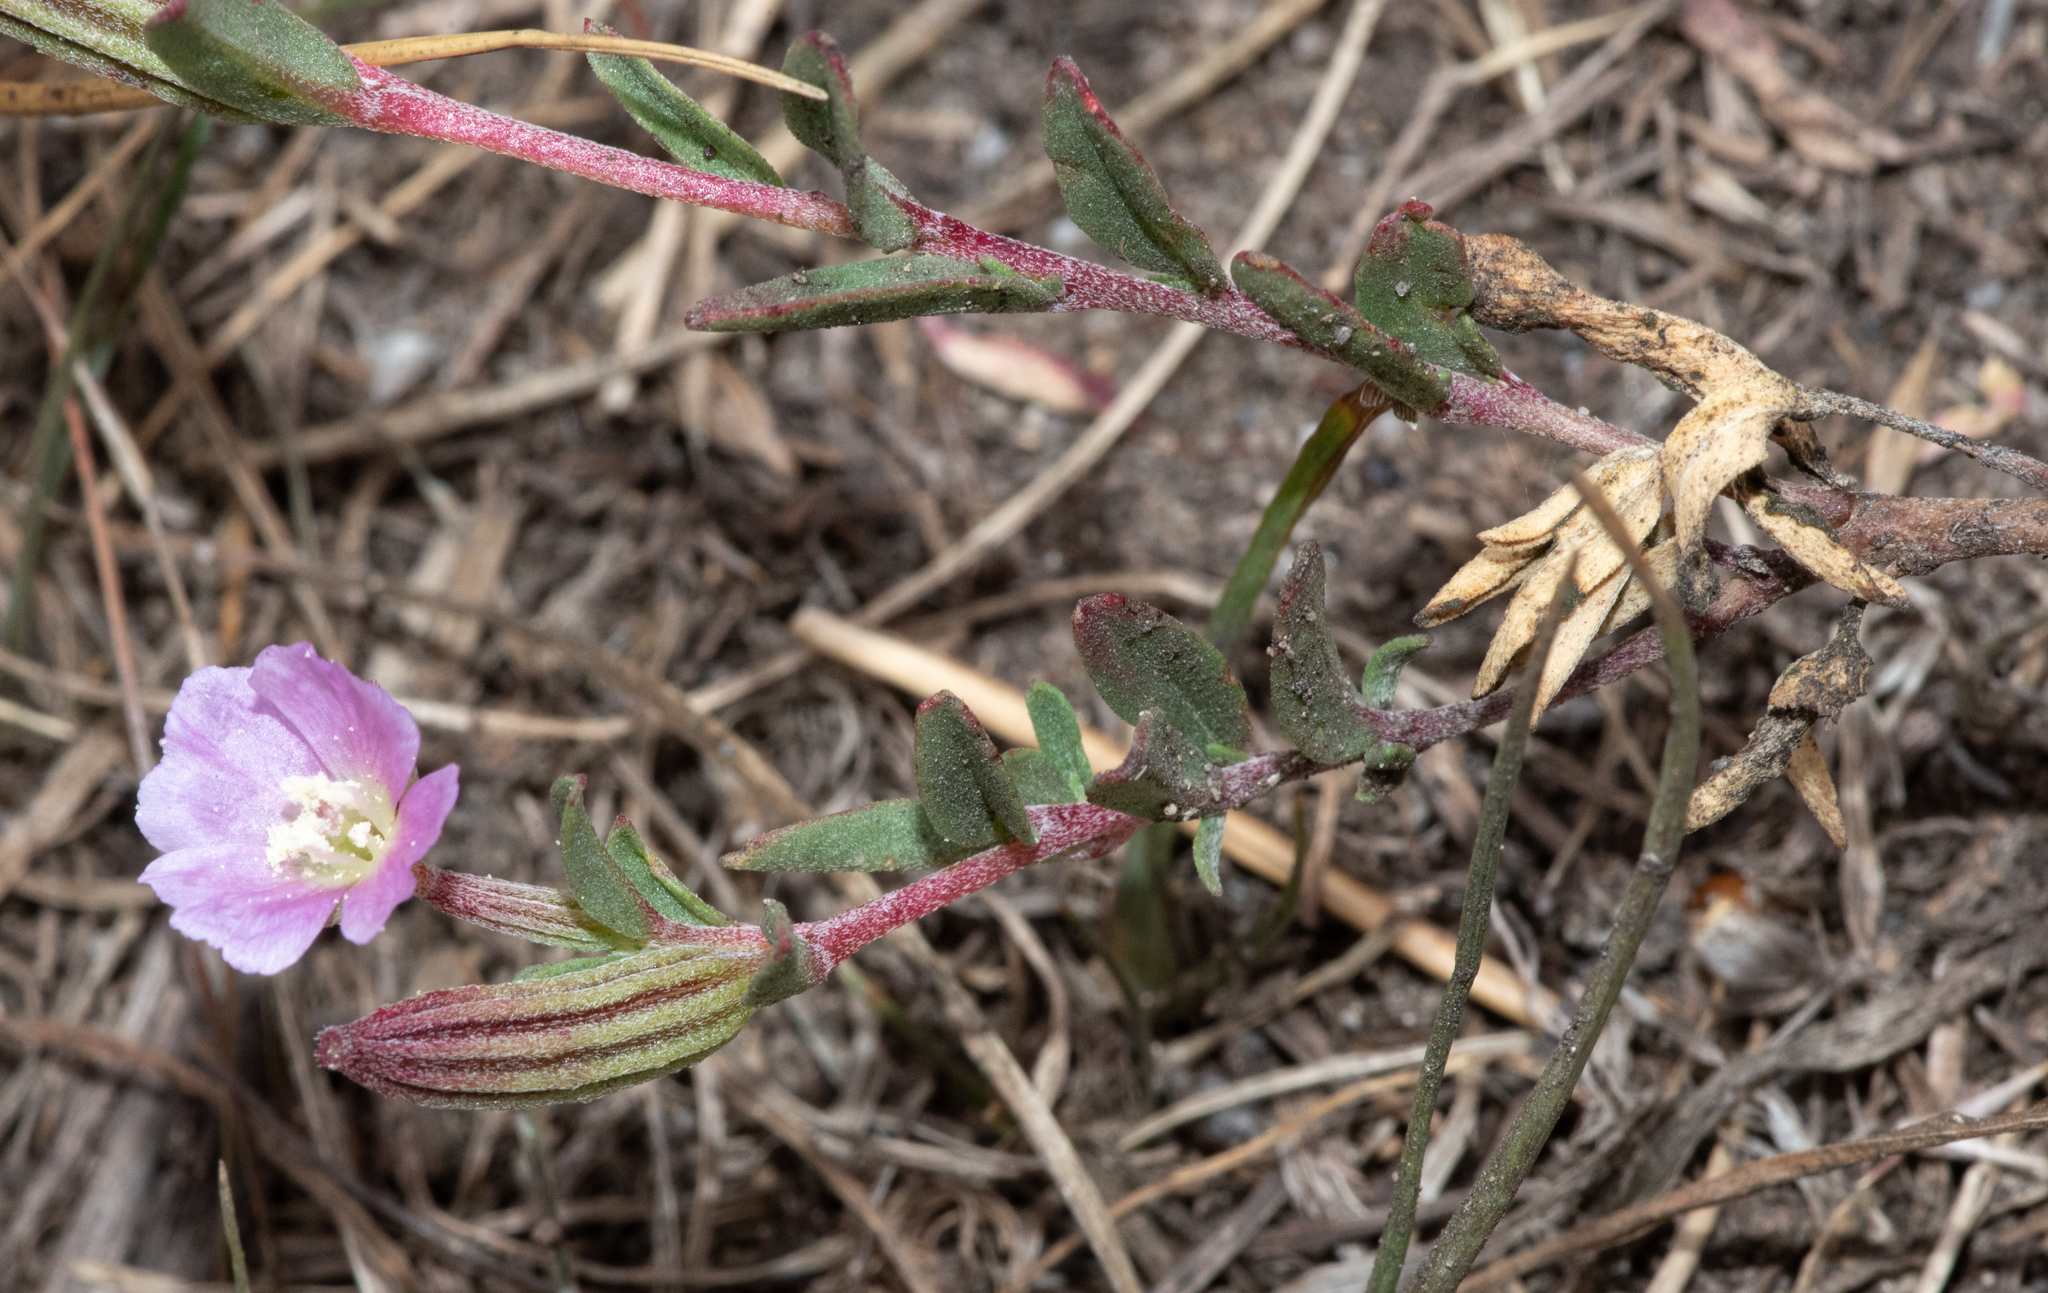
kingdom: Plantae
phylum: Tracheophyta
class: Magnoliopsida
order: Myrtales
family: Onagraceae
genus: Clarkia
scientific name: Clarkia davyi
